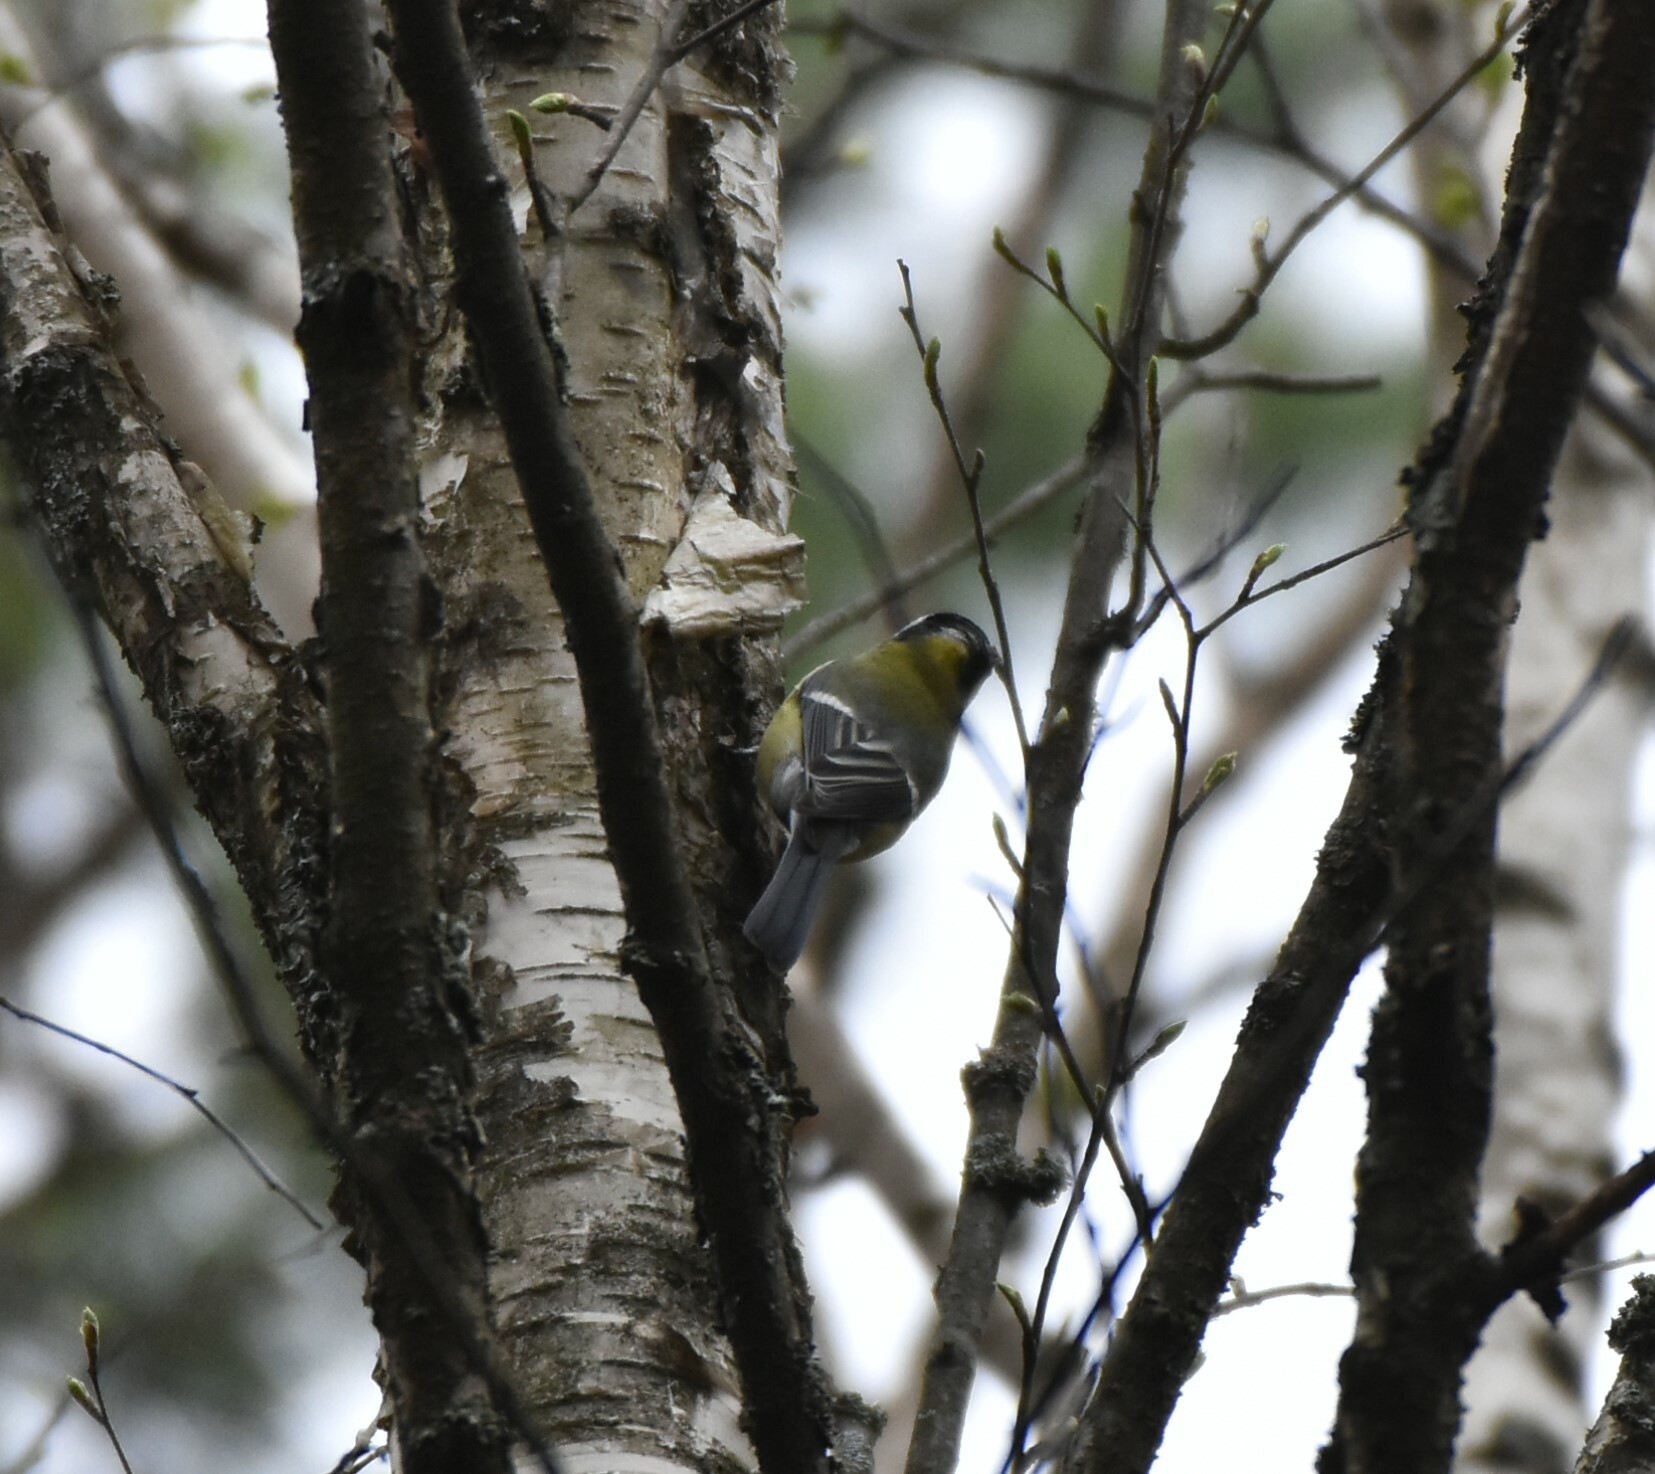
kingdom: Animalia
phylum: Chordata
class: Aves
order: Passeriformes
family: Paridae
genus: Parus
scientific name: Parus major
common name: Great tit
